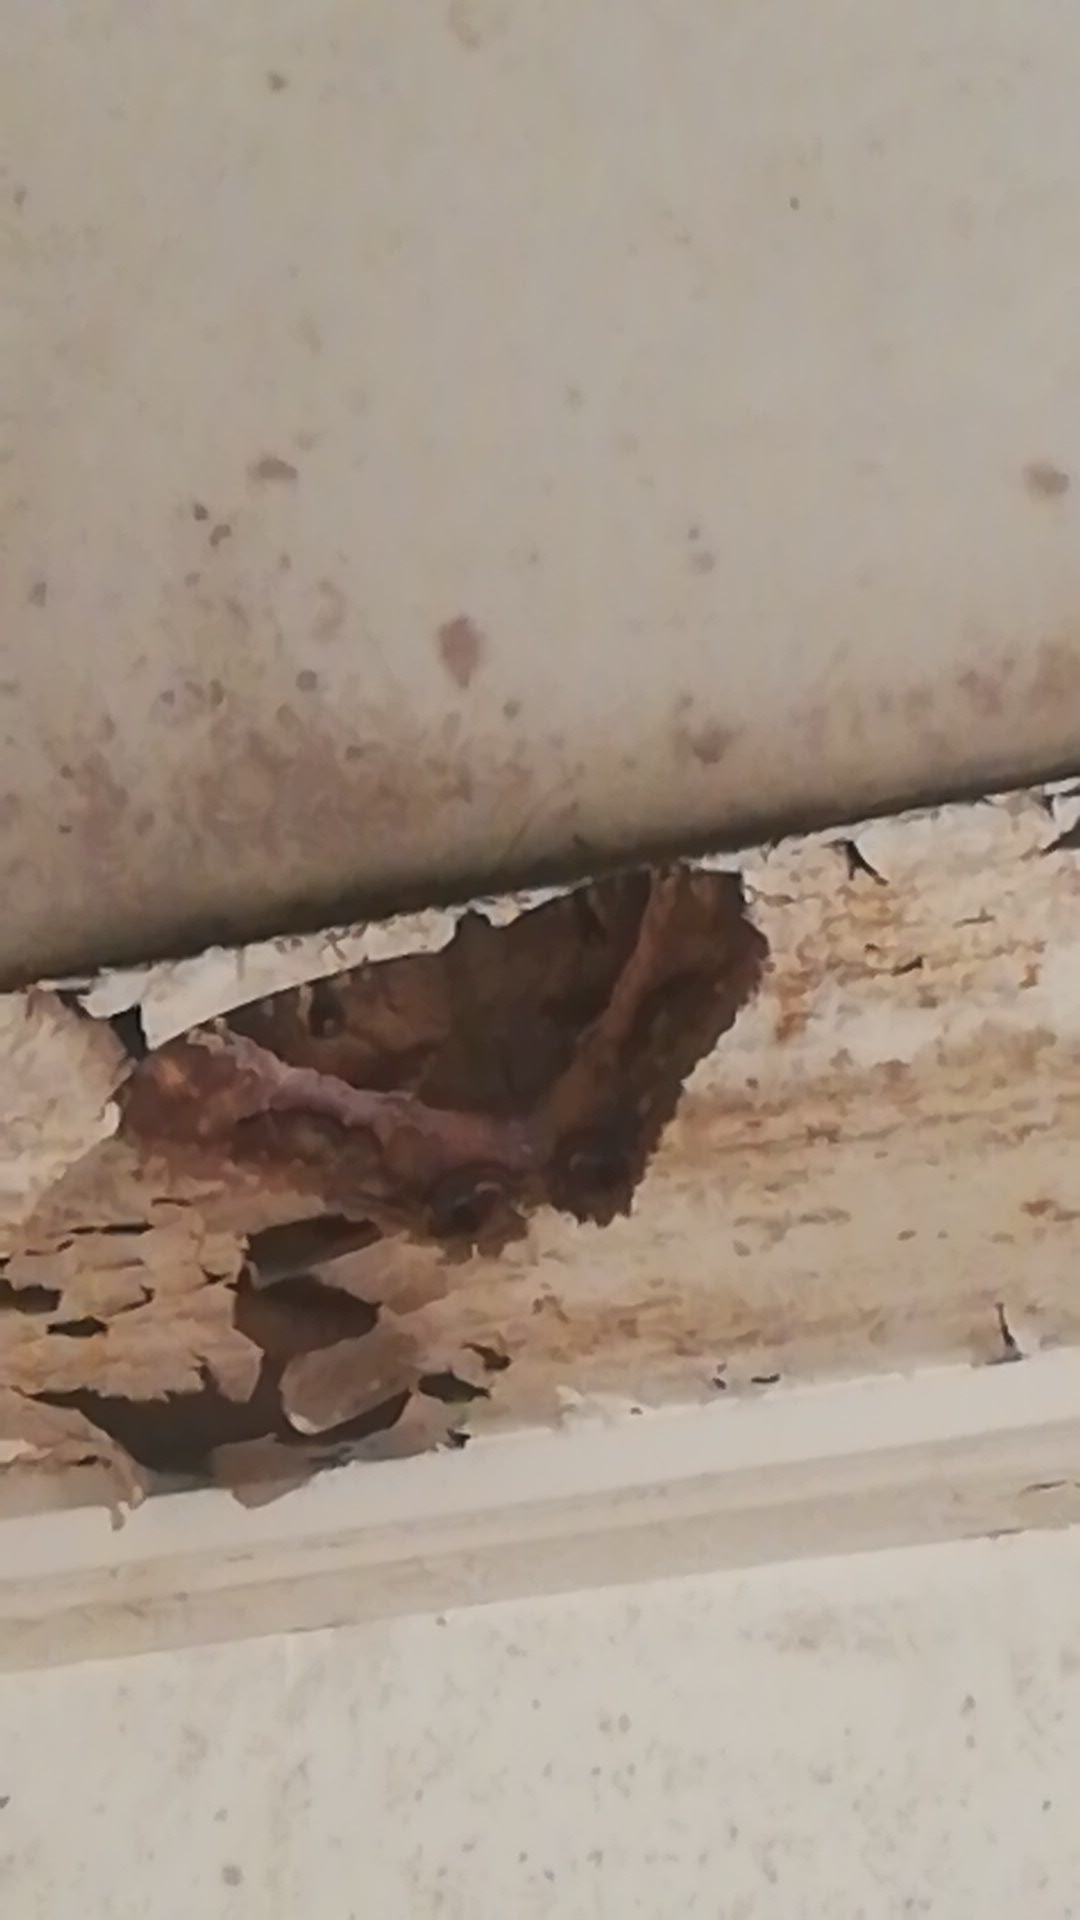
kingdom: Animalia
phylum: Arthropoda
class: Insecta
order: Lepidoptera
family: Erebidae
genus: Ascalapha
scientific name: Ascalapha odorata
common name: Black witch
